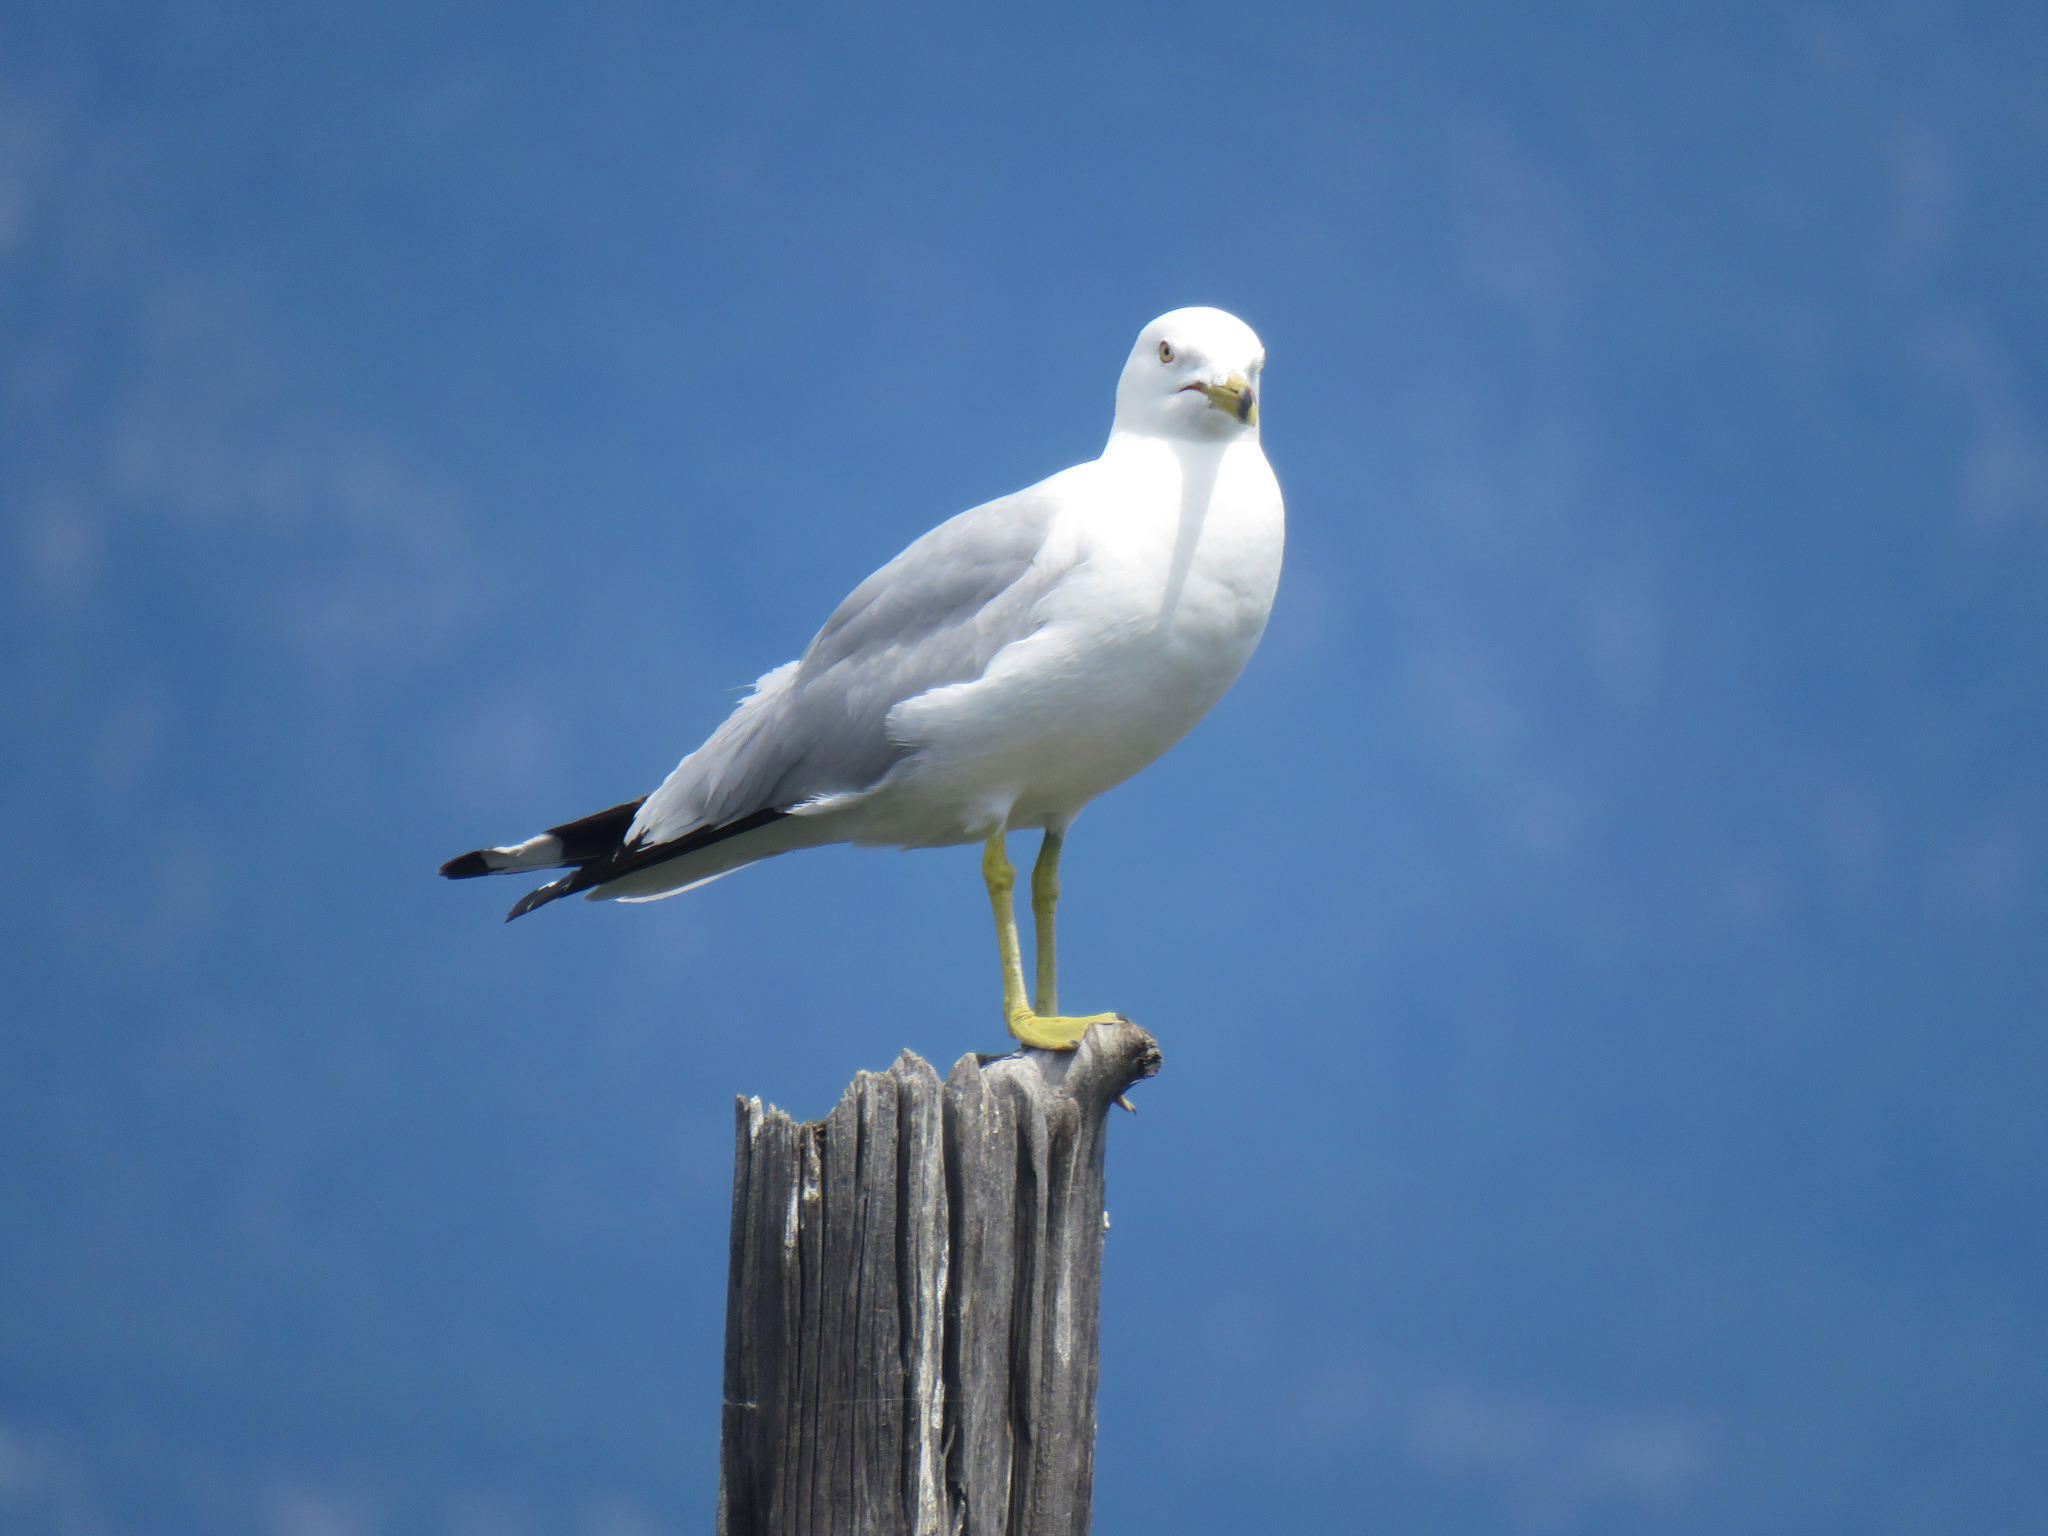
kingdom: Animalia
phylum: Chordata
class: Aves
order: Charadriiformes
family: Laridae
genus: Larus
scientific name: Larus delawarensis
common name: Ring-billed gull
